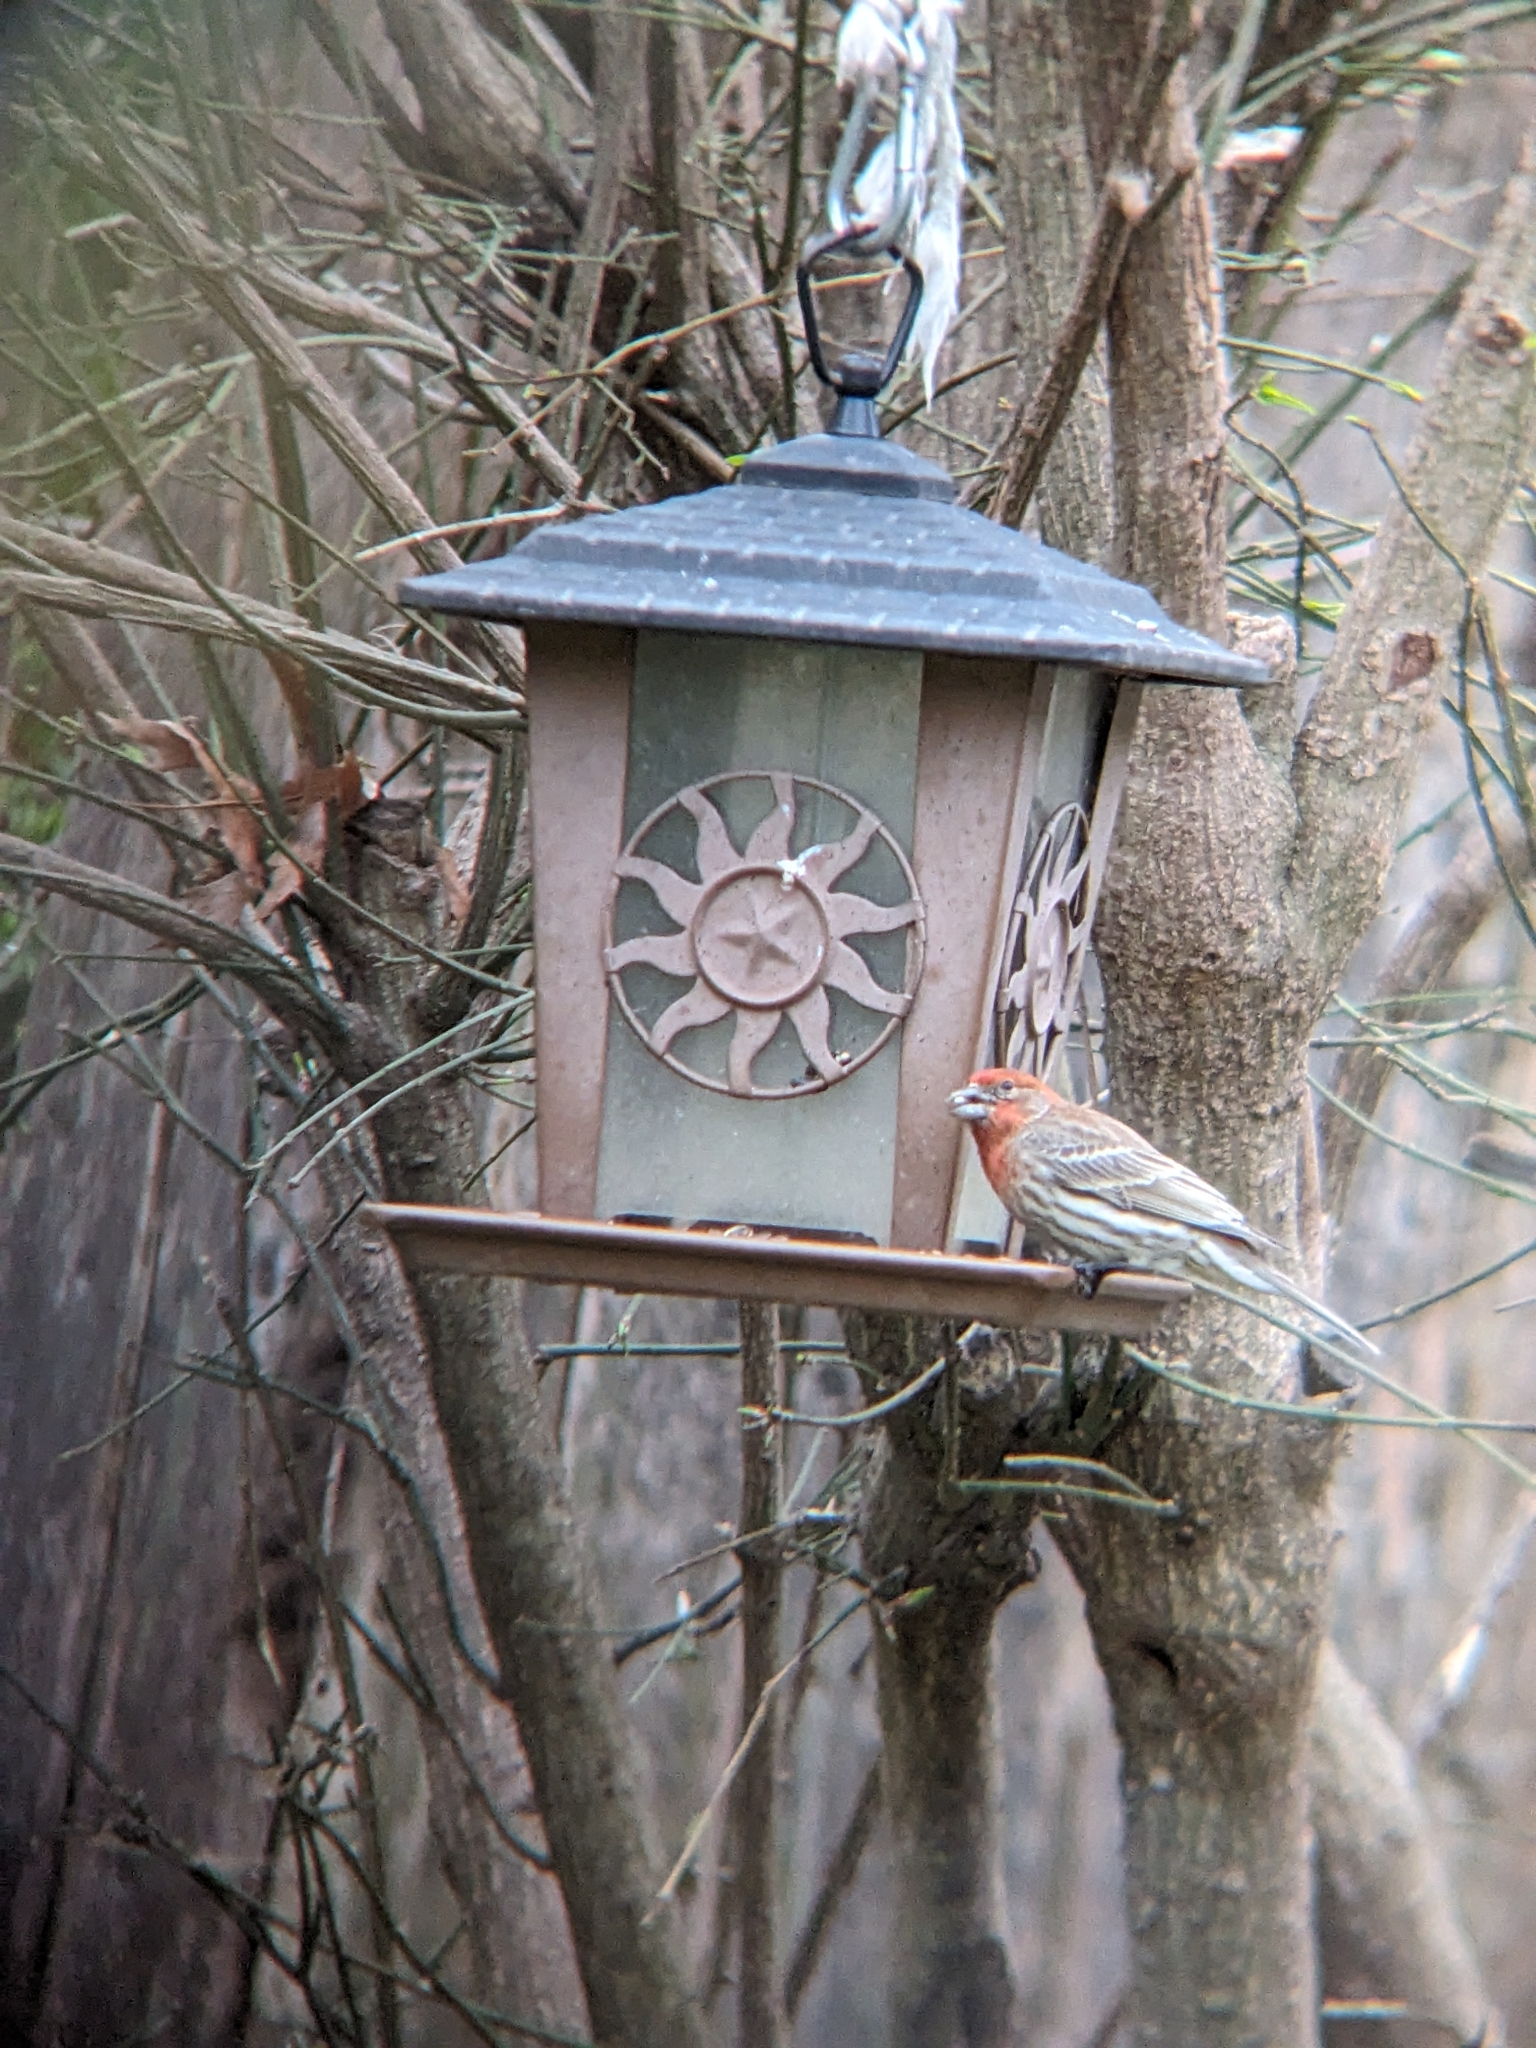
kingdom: Animalia
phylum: Chordata
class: Aves
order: Passeriformes
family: Fringillidae
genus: Haemorhous
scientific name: Haemorhous mexicanus
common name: House finch
